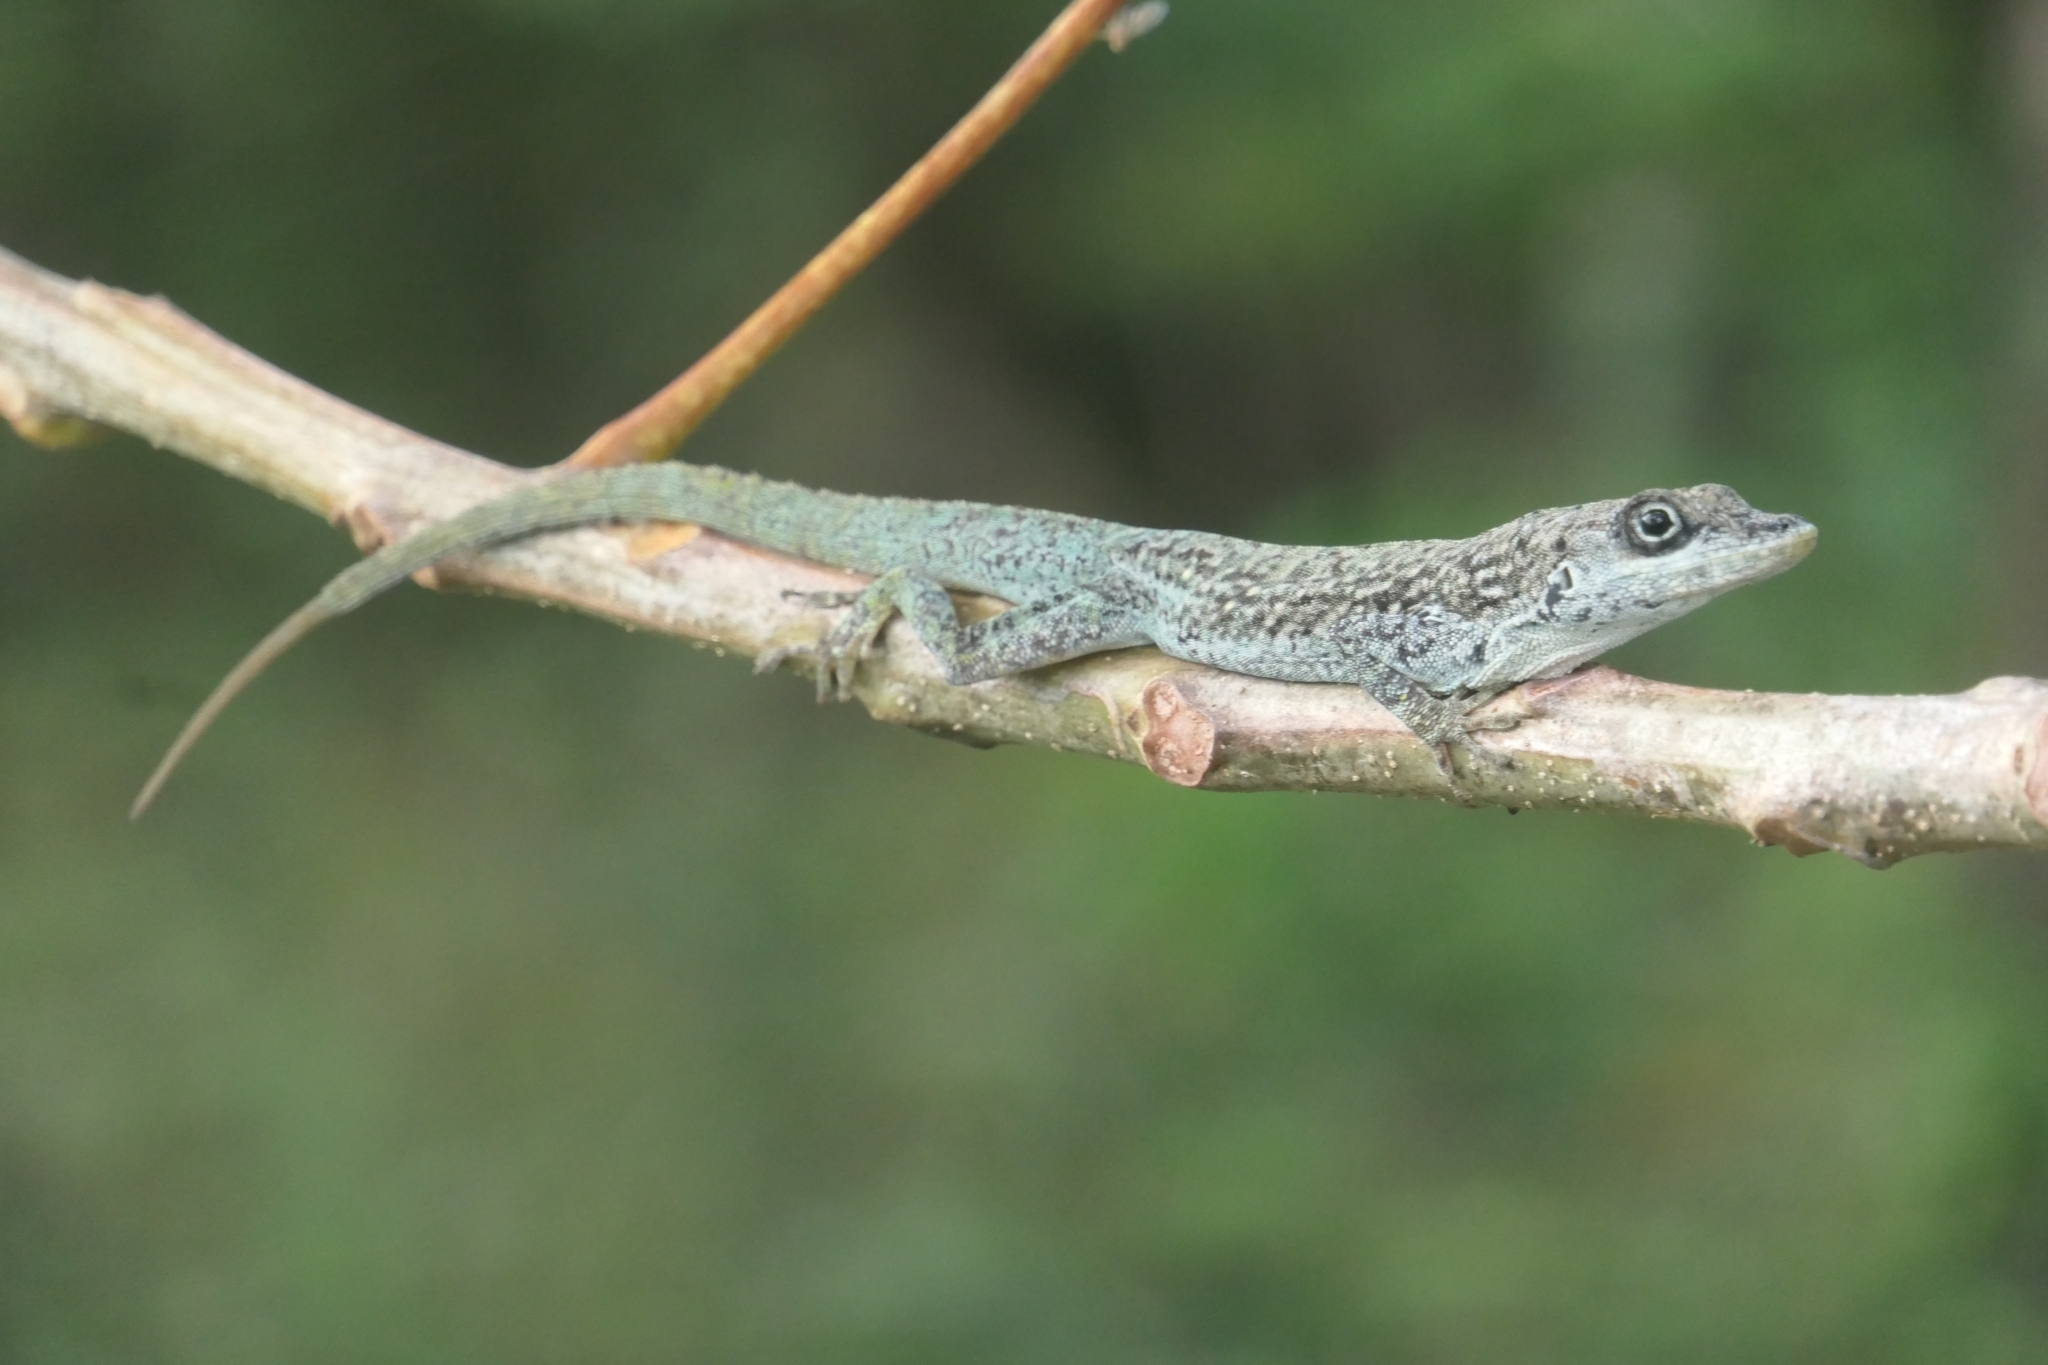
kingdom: Animalia
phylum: Chordata
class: Squamata
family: Dactyloidae
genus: Anolis
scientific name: Anolis roquet
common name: Martinique anole
